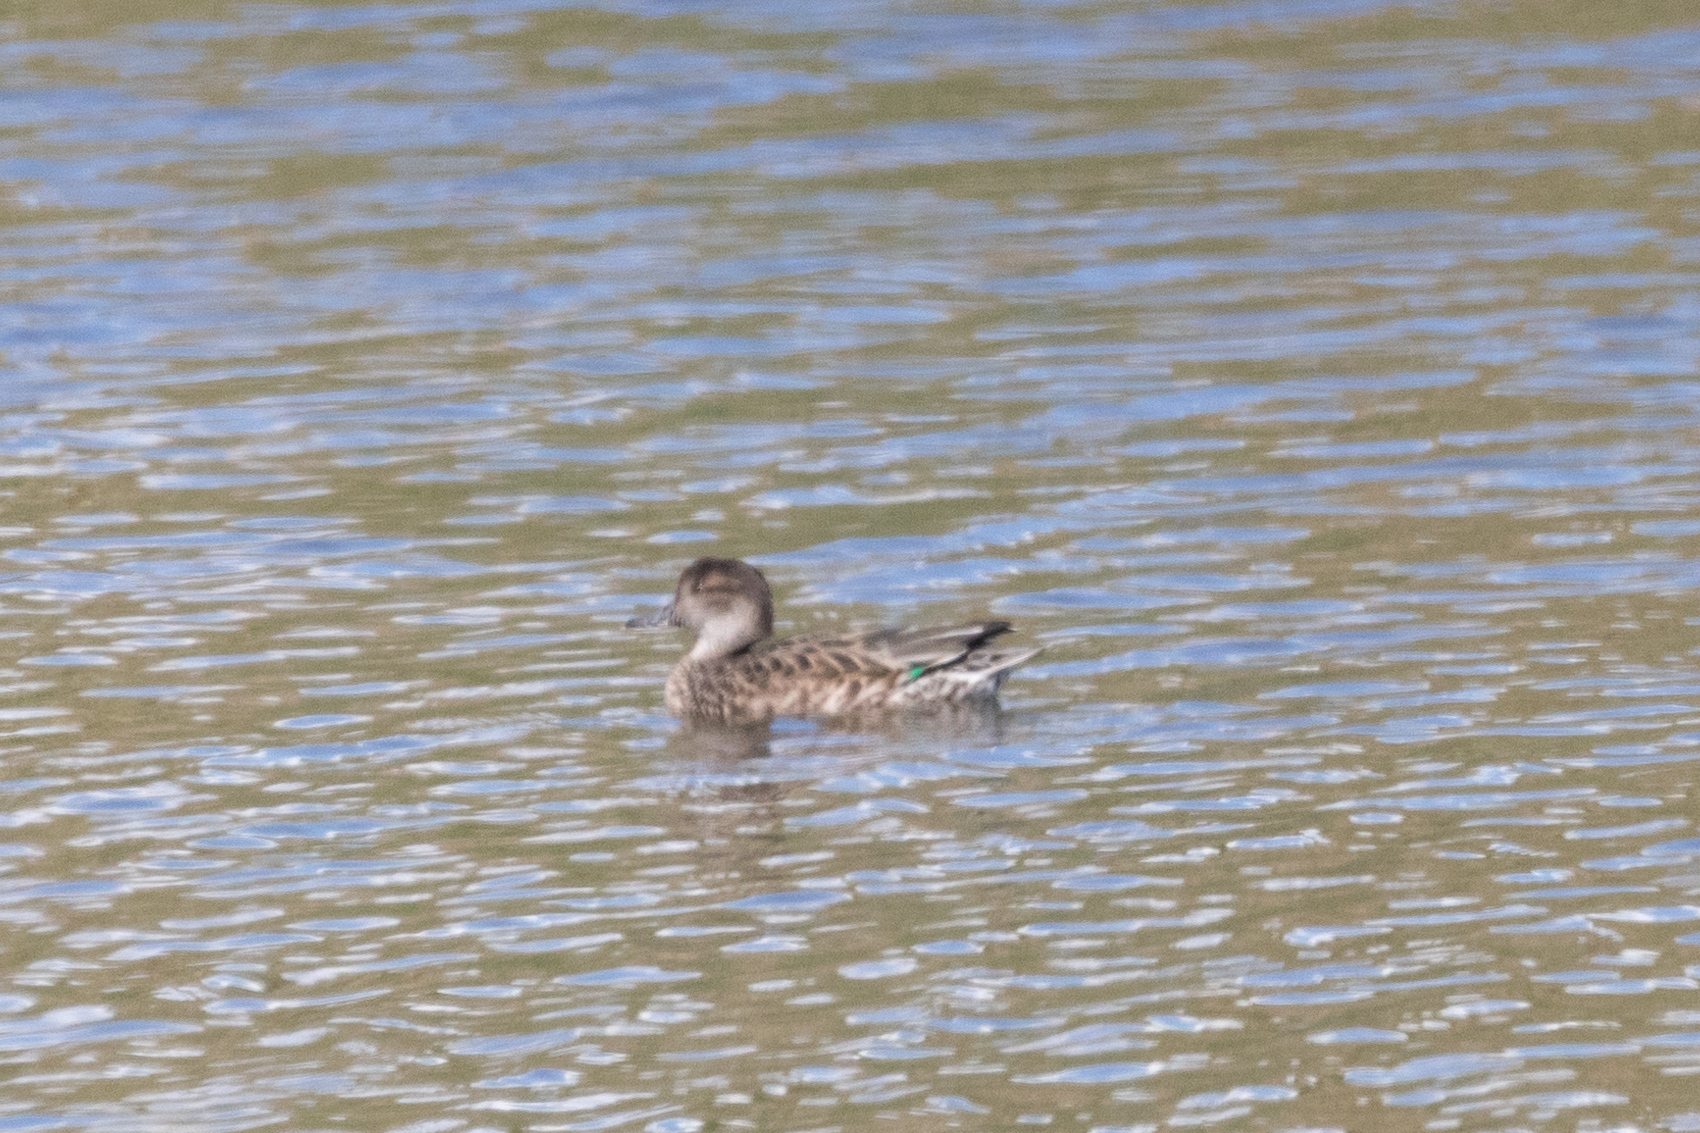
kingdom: Animalia
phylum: Chordata
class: Aves
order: Anseriformes
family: Anatidae
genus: Anas
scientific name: Anas crecca
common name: Eurasian teal
